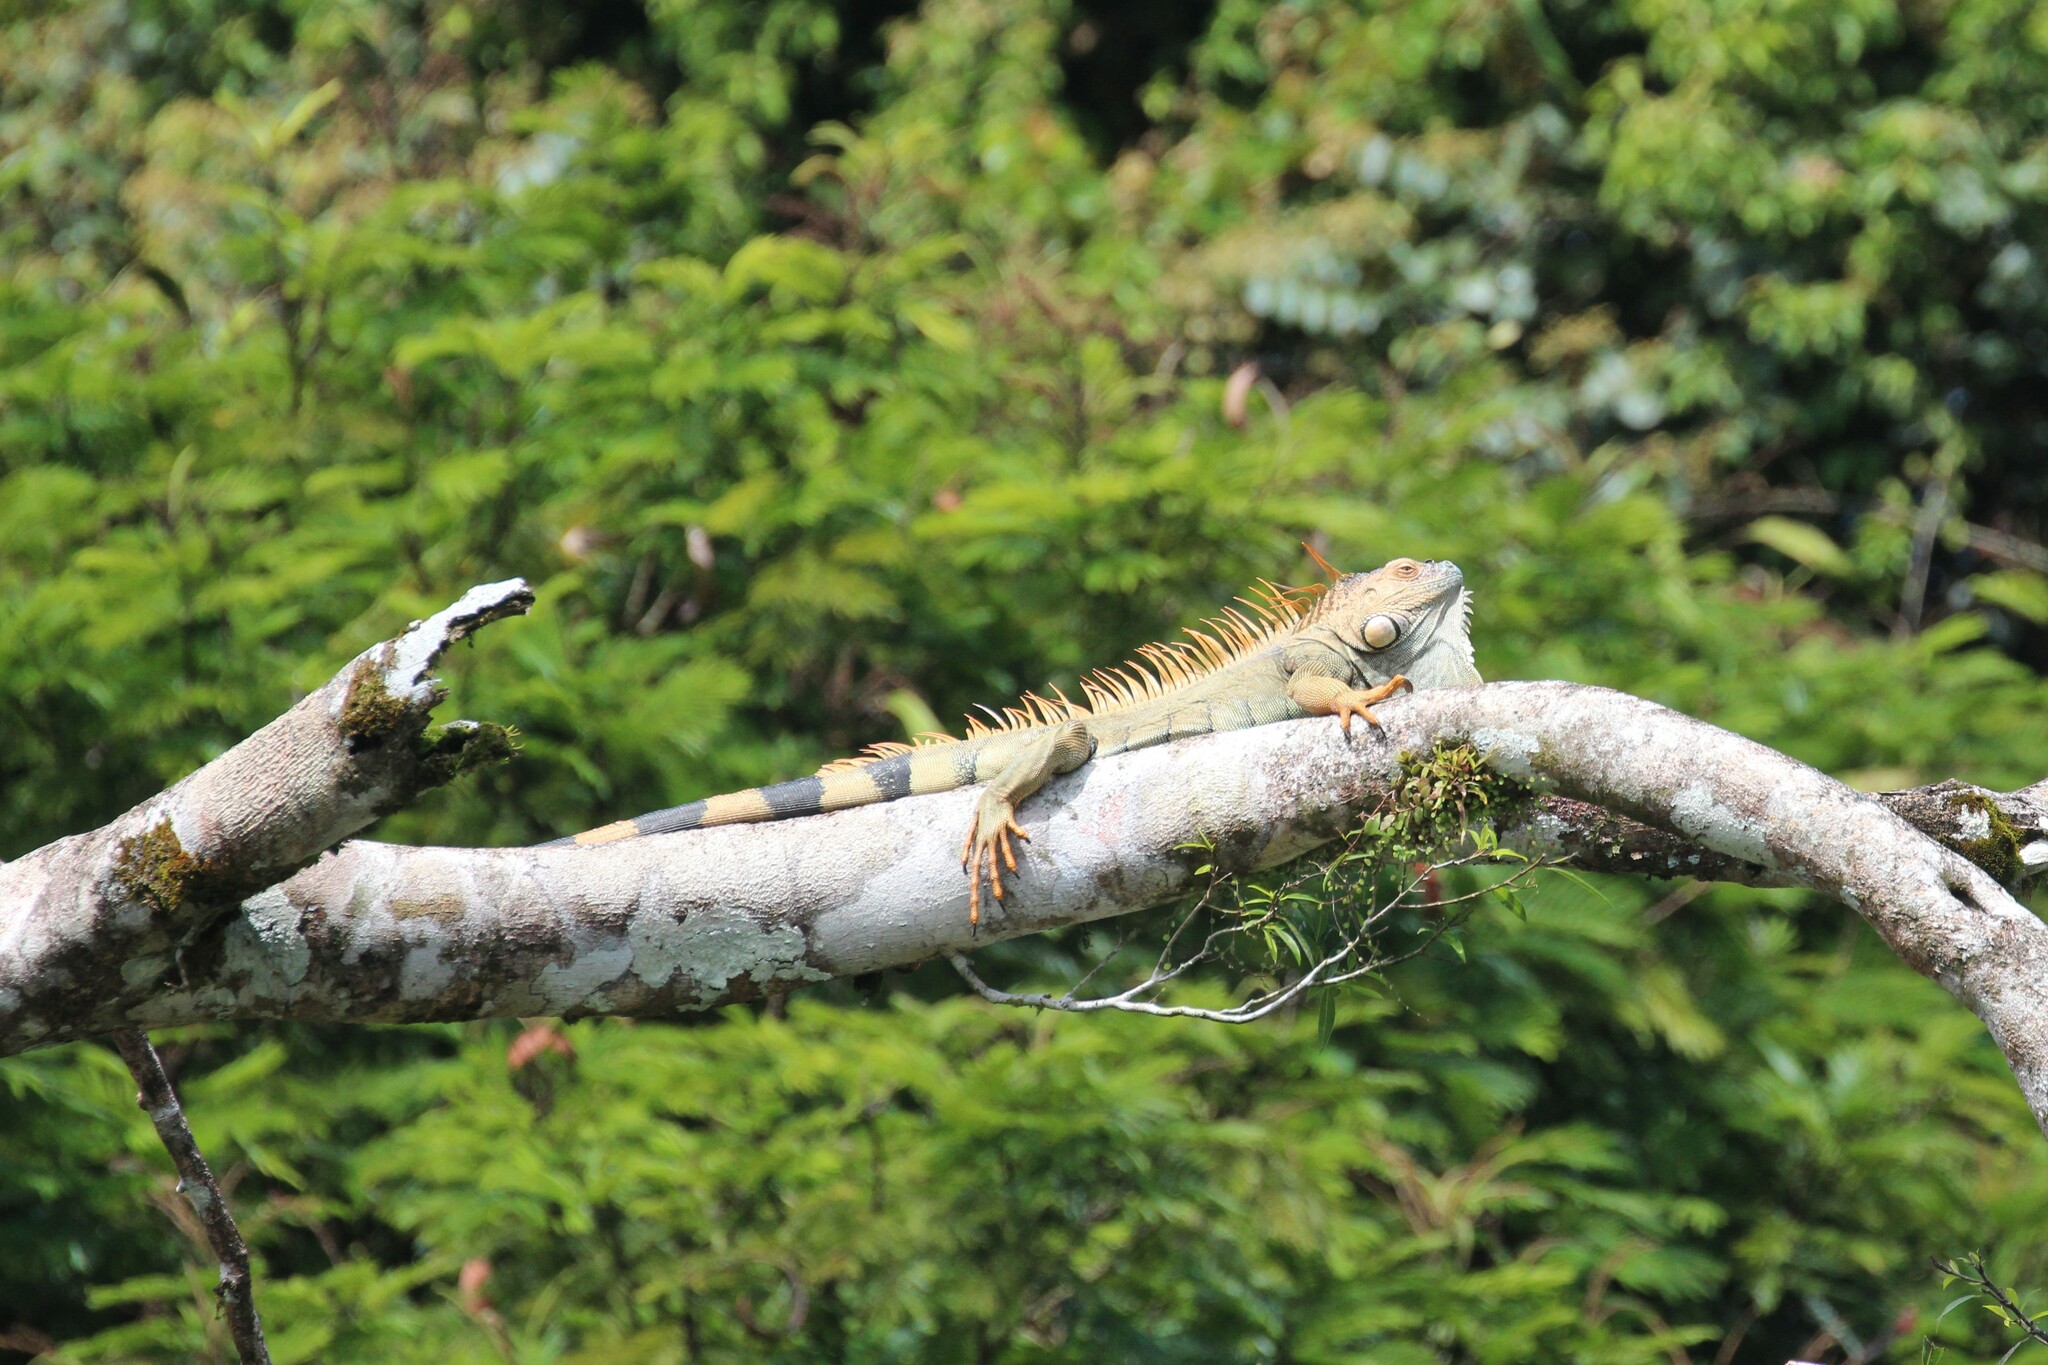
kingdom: Animalia
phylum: Chordata
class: Squamata
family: Iguanidae
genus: Iguana
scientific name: Iguana iguana
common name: Green iguana
